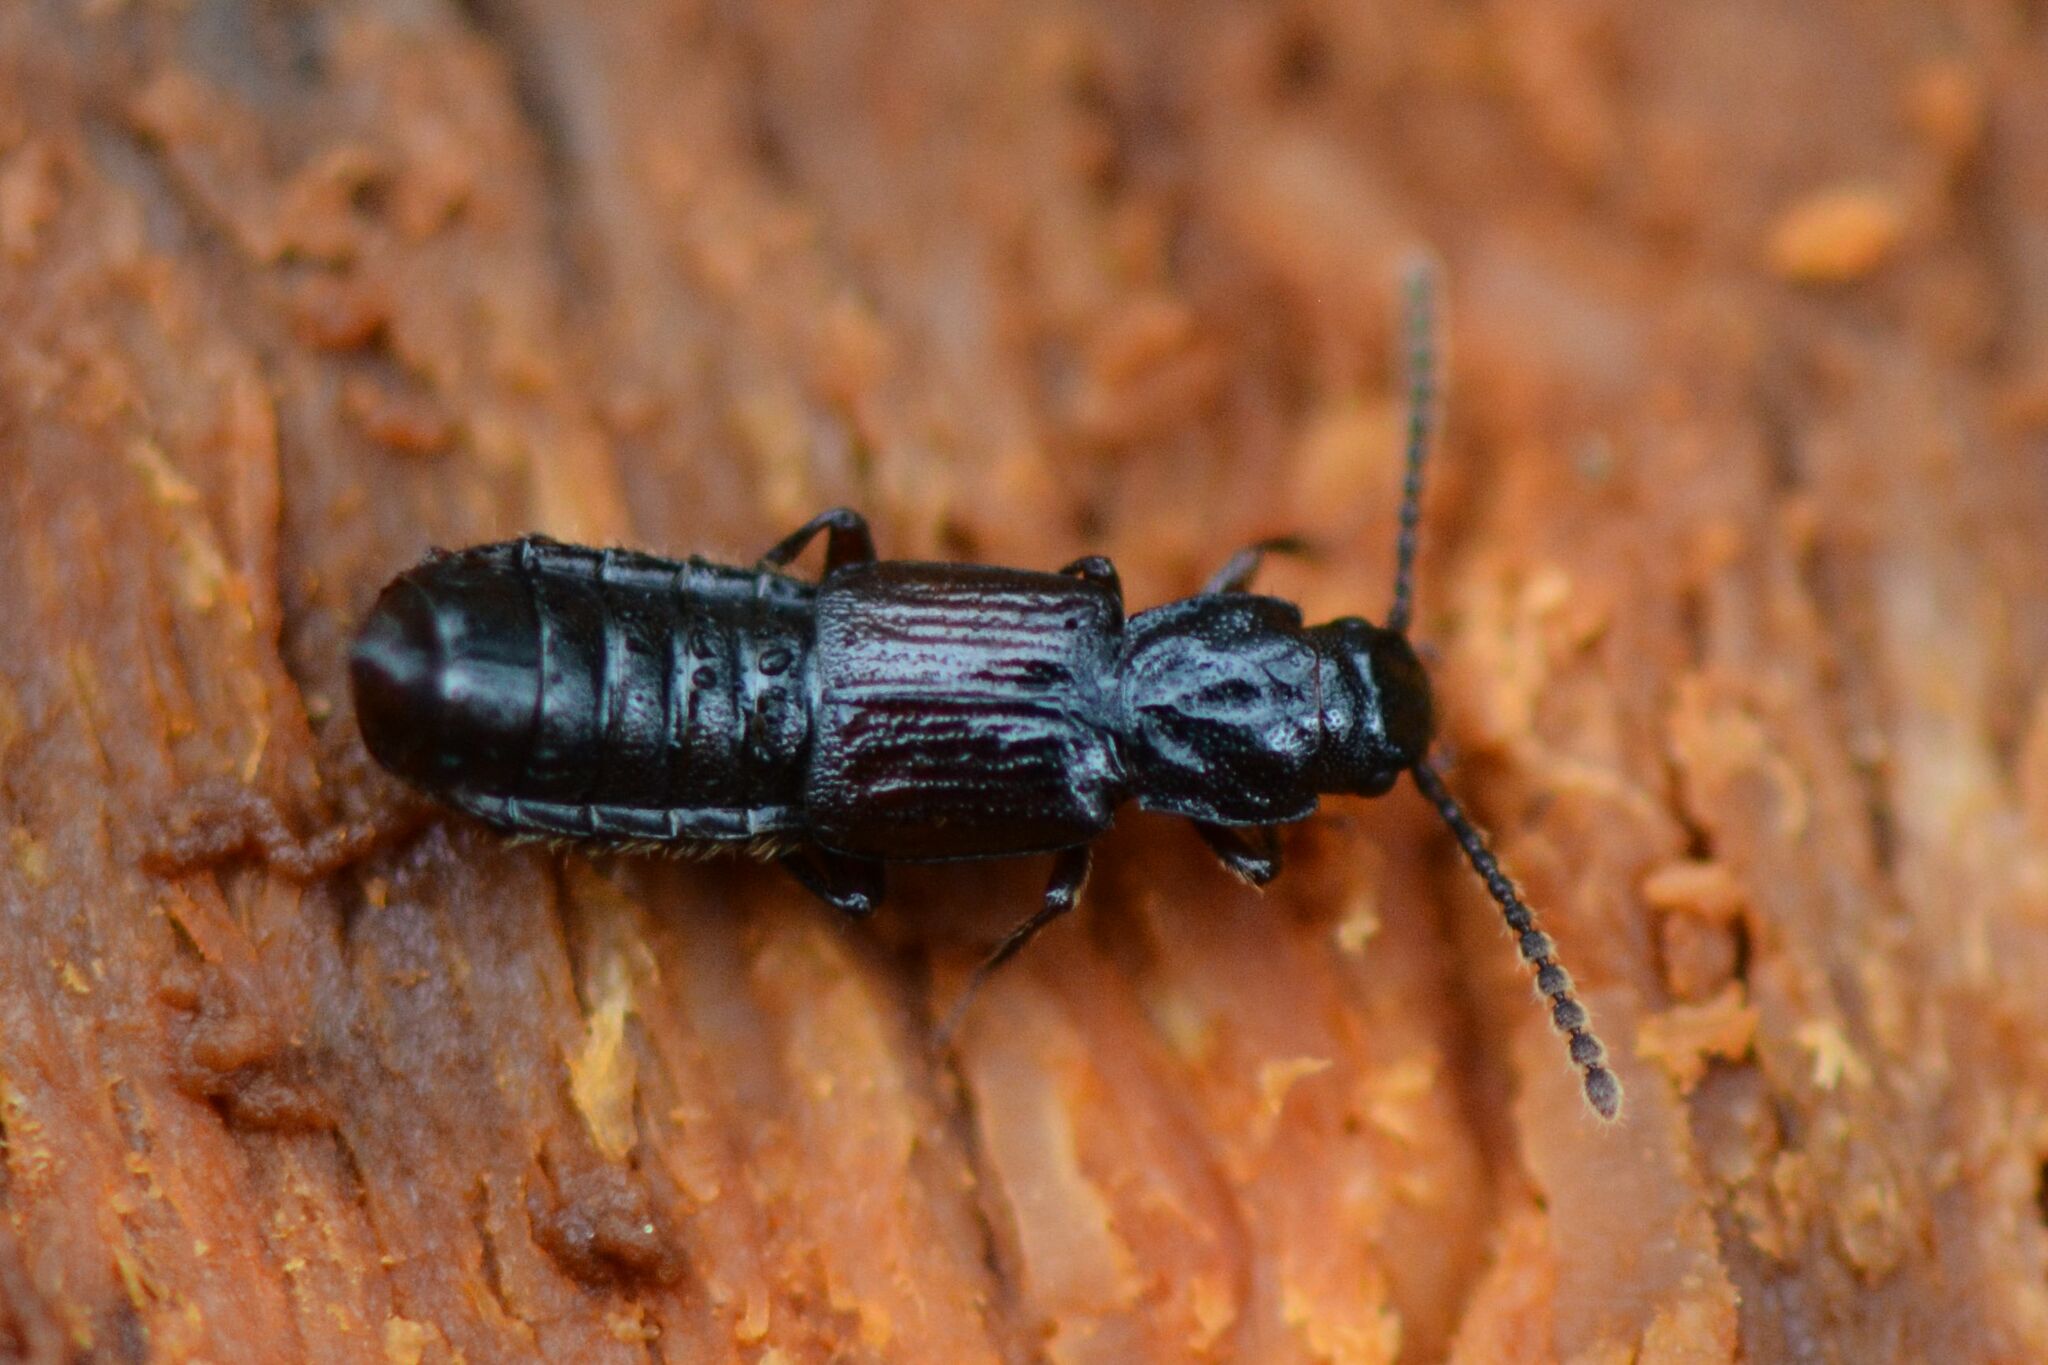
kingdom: Animalia
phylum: Arthropoda
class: Insecta
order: Coleoptera
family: Staphylinidae
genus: Coprophilus
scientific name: Coprophilus striatulus
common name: Rove beetle
